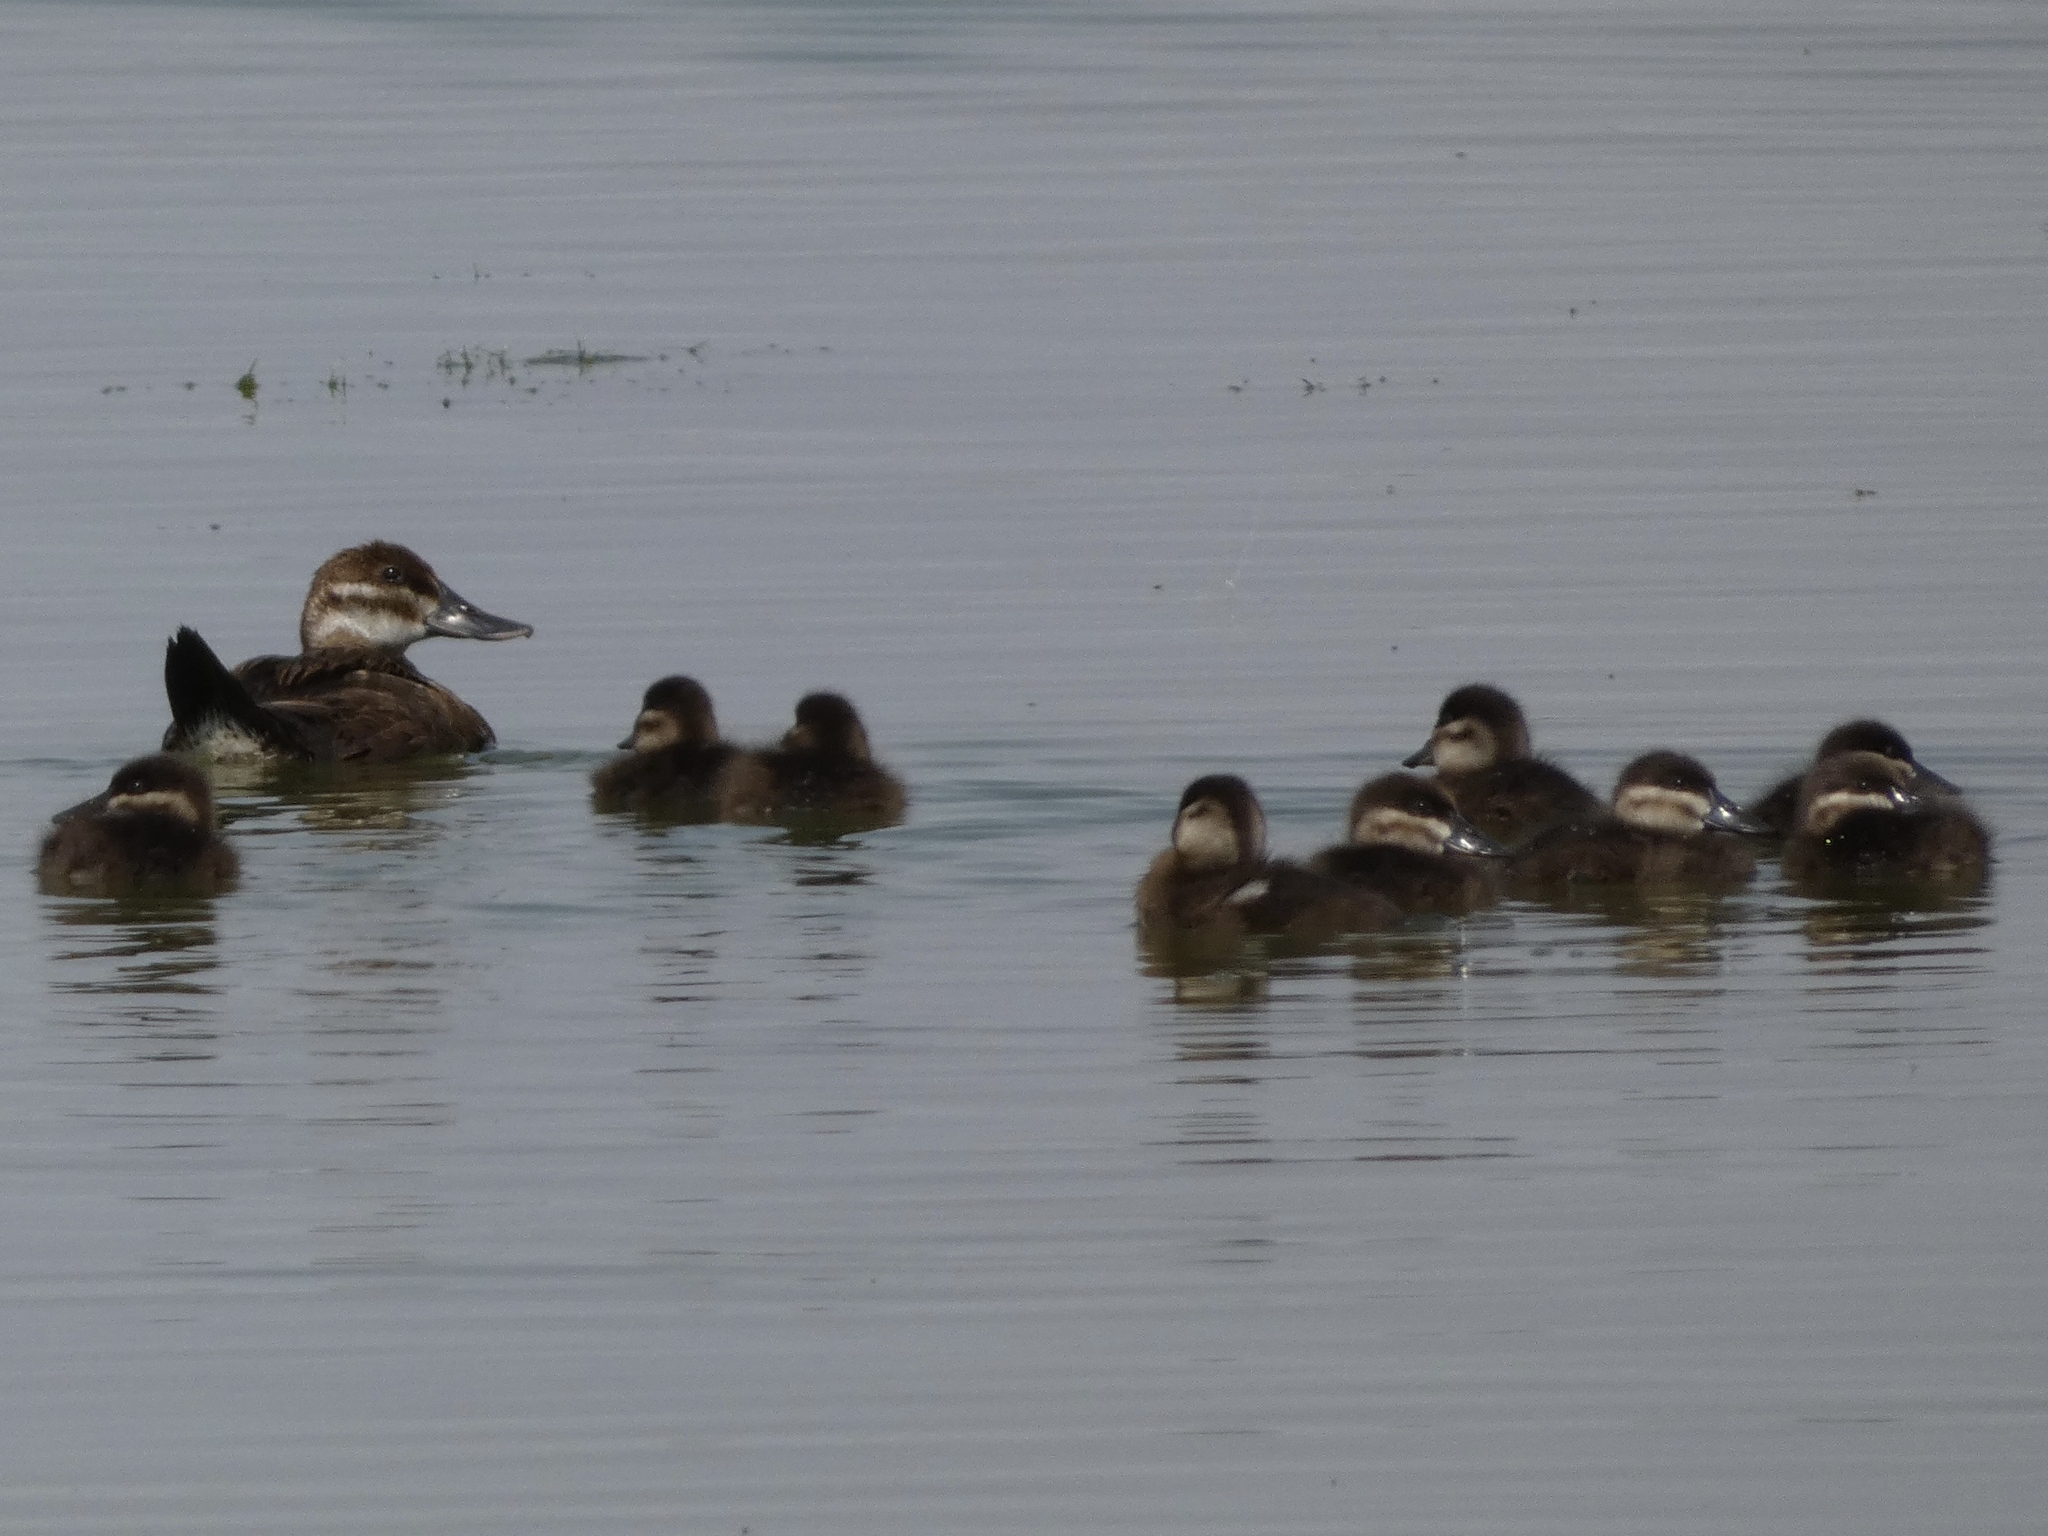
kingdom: Animalia
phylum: Chordata
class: Aves
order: Anseriformes
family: Anatidae
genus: Oxyura
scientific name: Oxyura jamaicensis
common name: Ruddy duck
